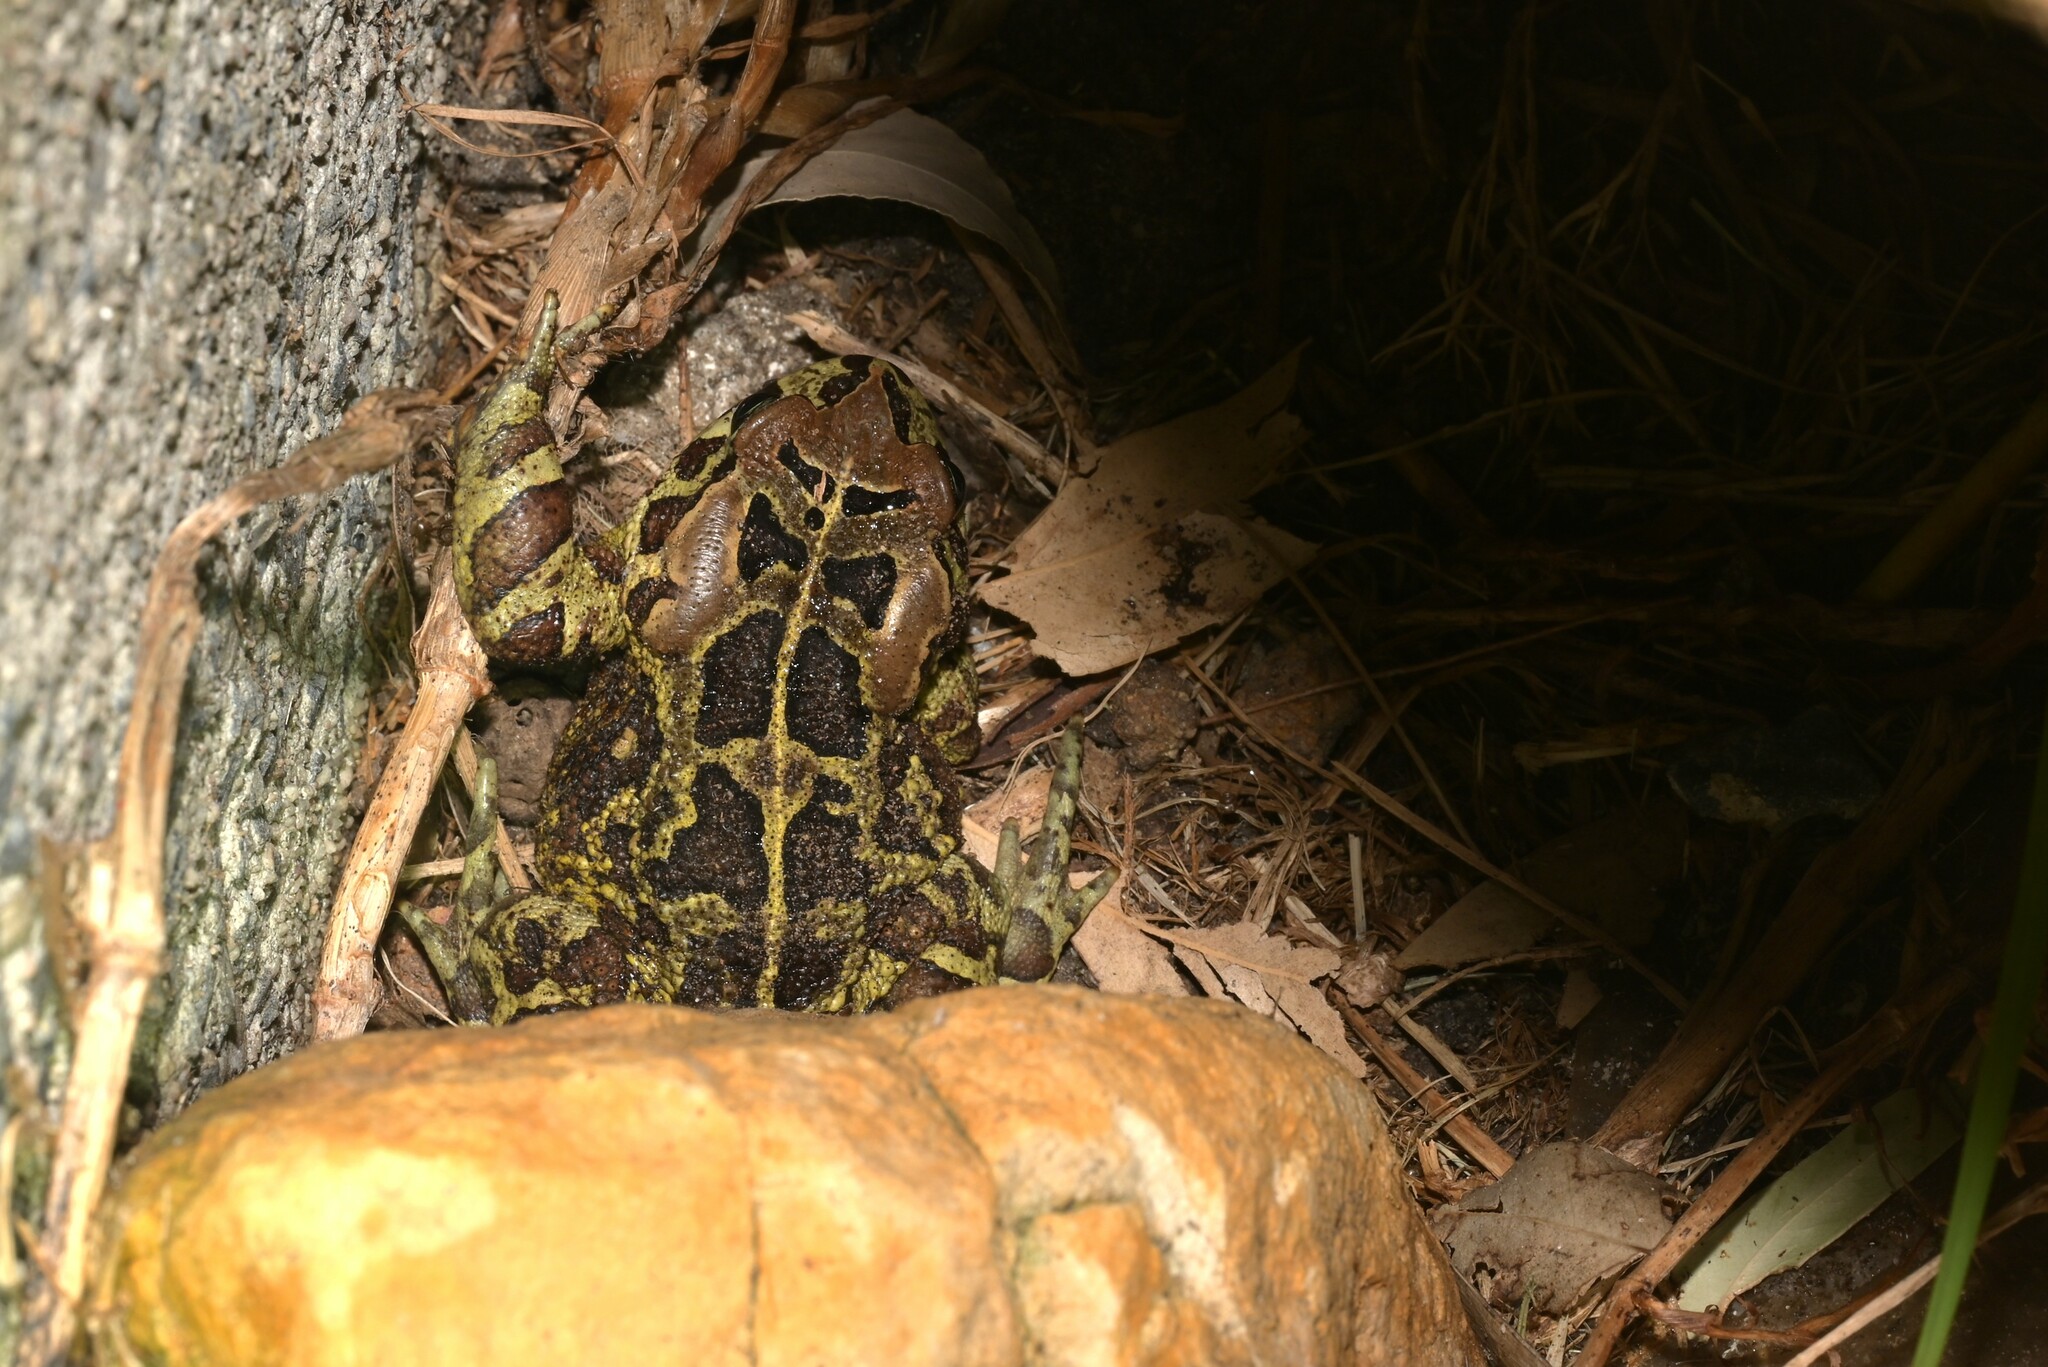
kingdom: Animalia
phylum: Chordata
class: Amphibia
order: Anura
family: Bufonidae
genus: Sclerophrys
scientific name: Sclerophrys pantherina
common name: Panther toad
